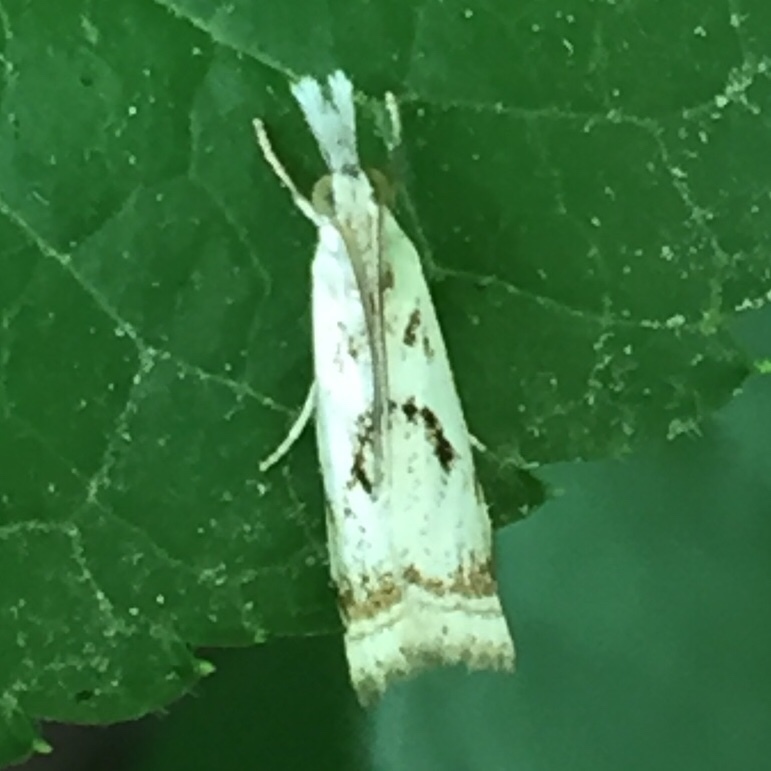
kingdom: Animalia
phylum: Arthropoda
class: Insecta
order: Lepidoptera
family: Crambidae
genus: Microcrambus
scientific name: Microcrambus elegans
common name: Elegant grass-veneer
